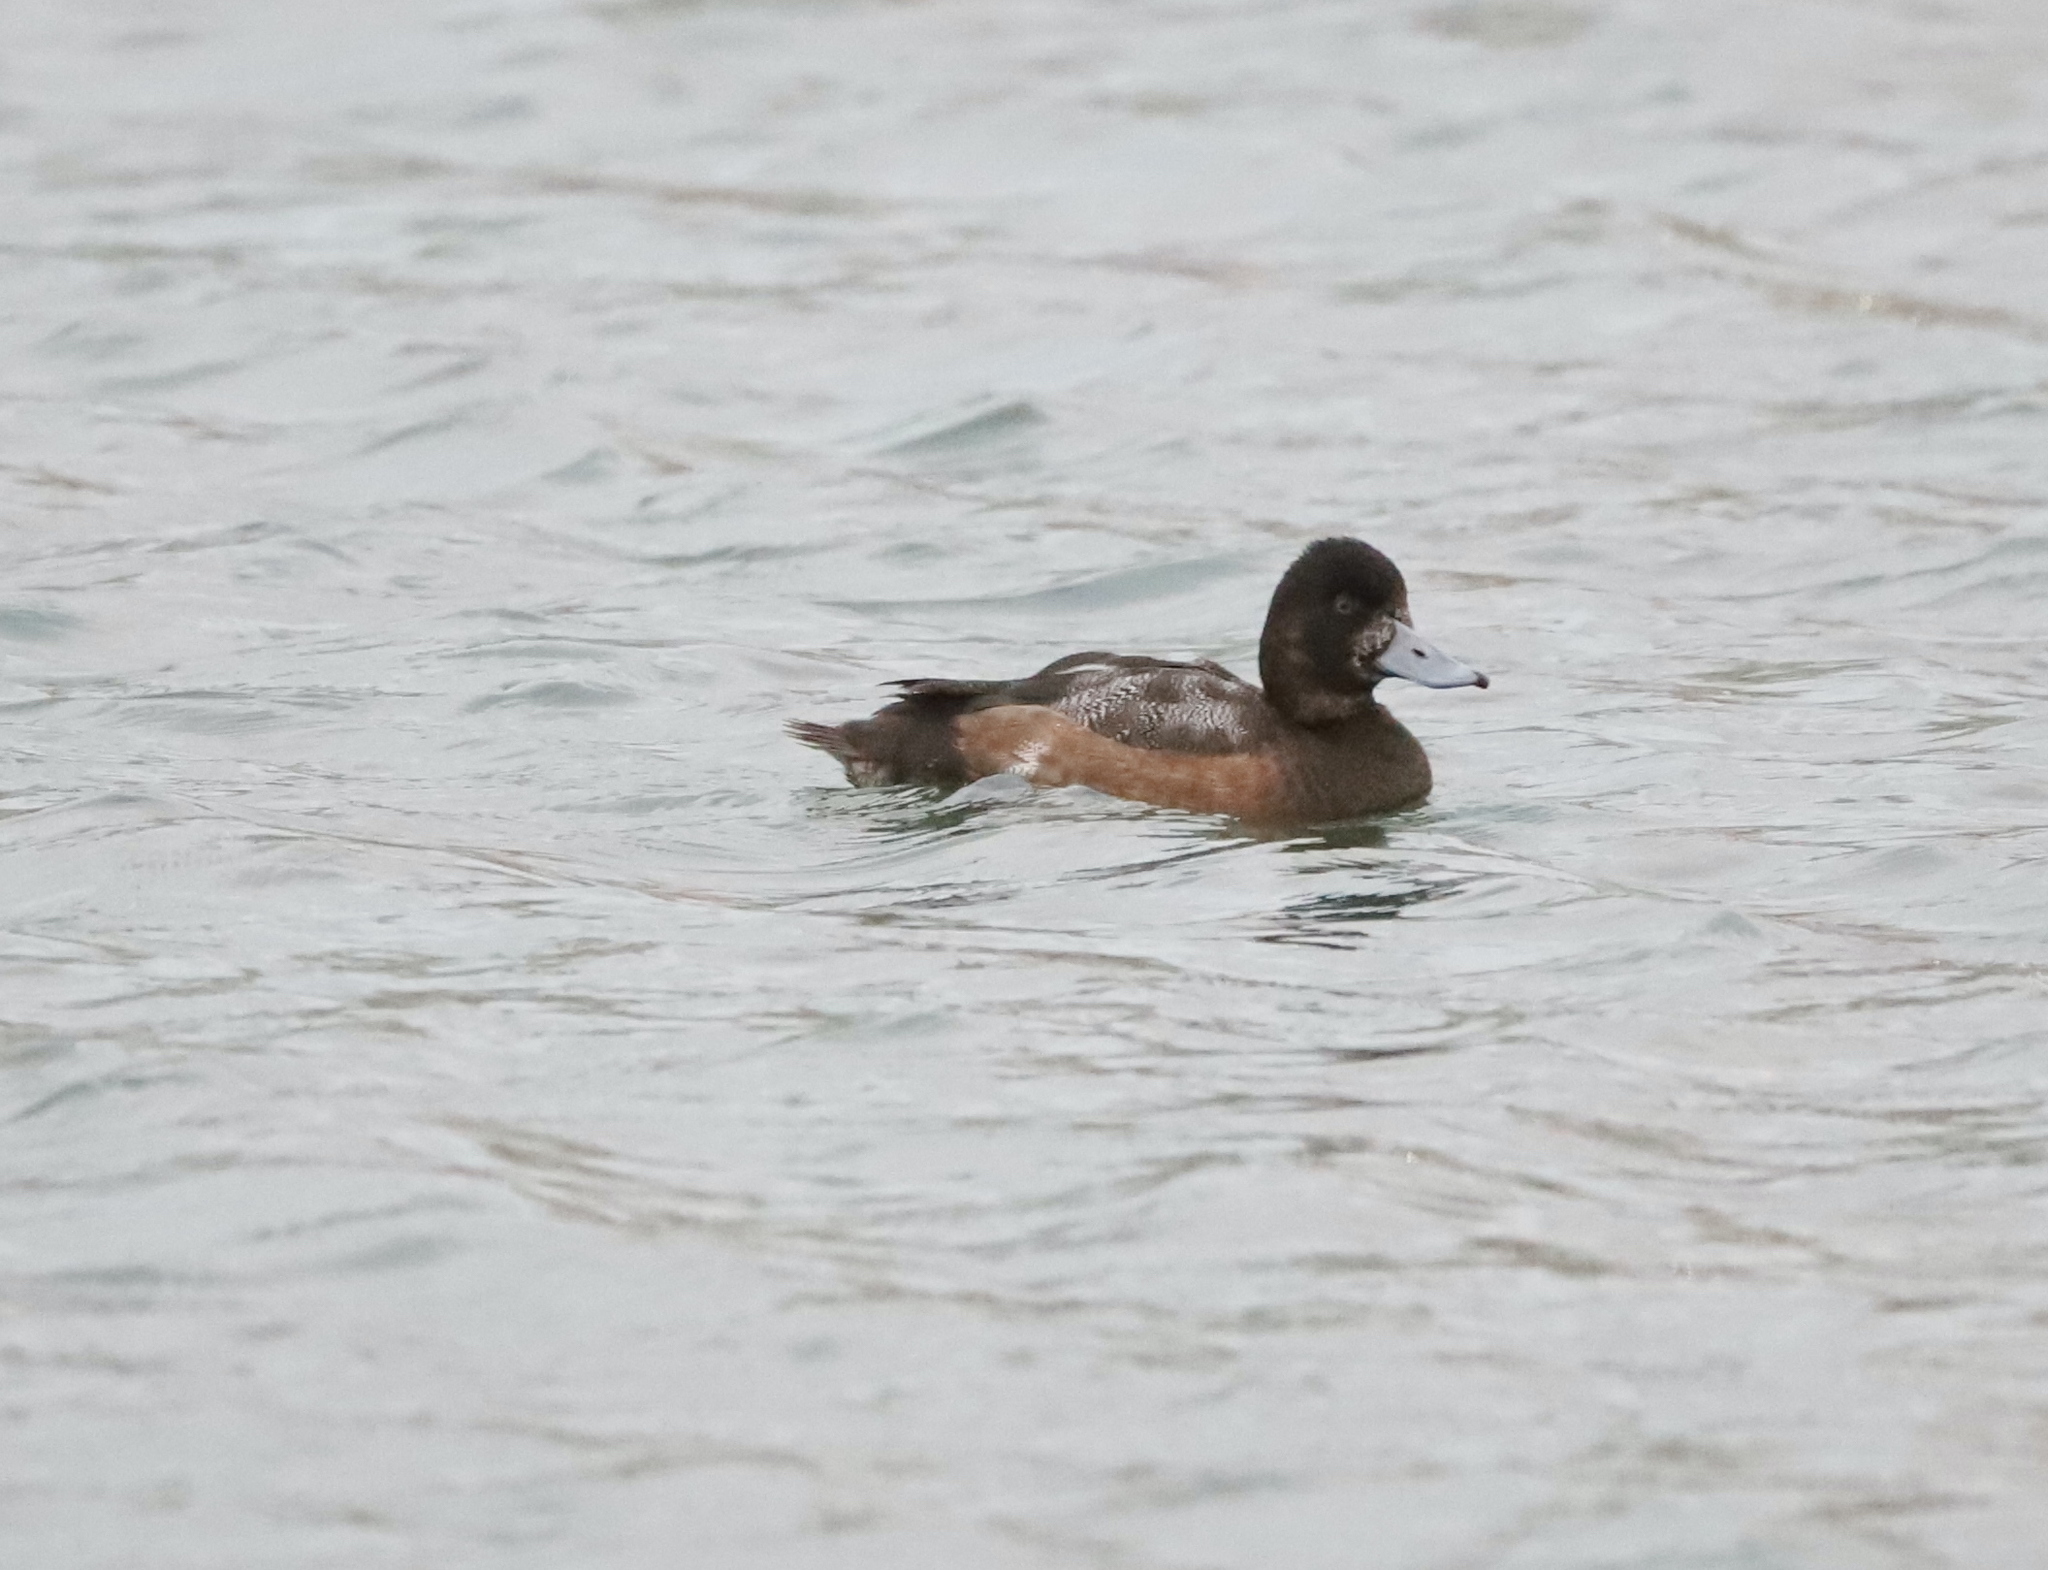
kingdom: Animalia
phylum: Chordata
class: Aves
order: Anseriformes
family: Anatidae
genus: Aythya
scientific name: Aythya marila
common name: Greater scaup
